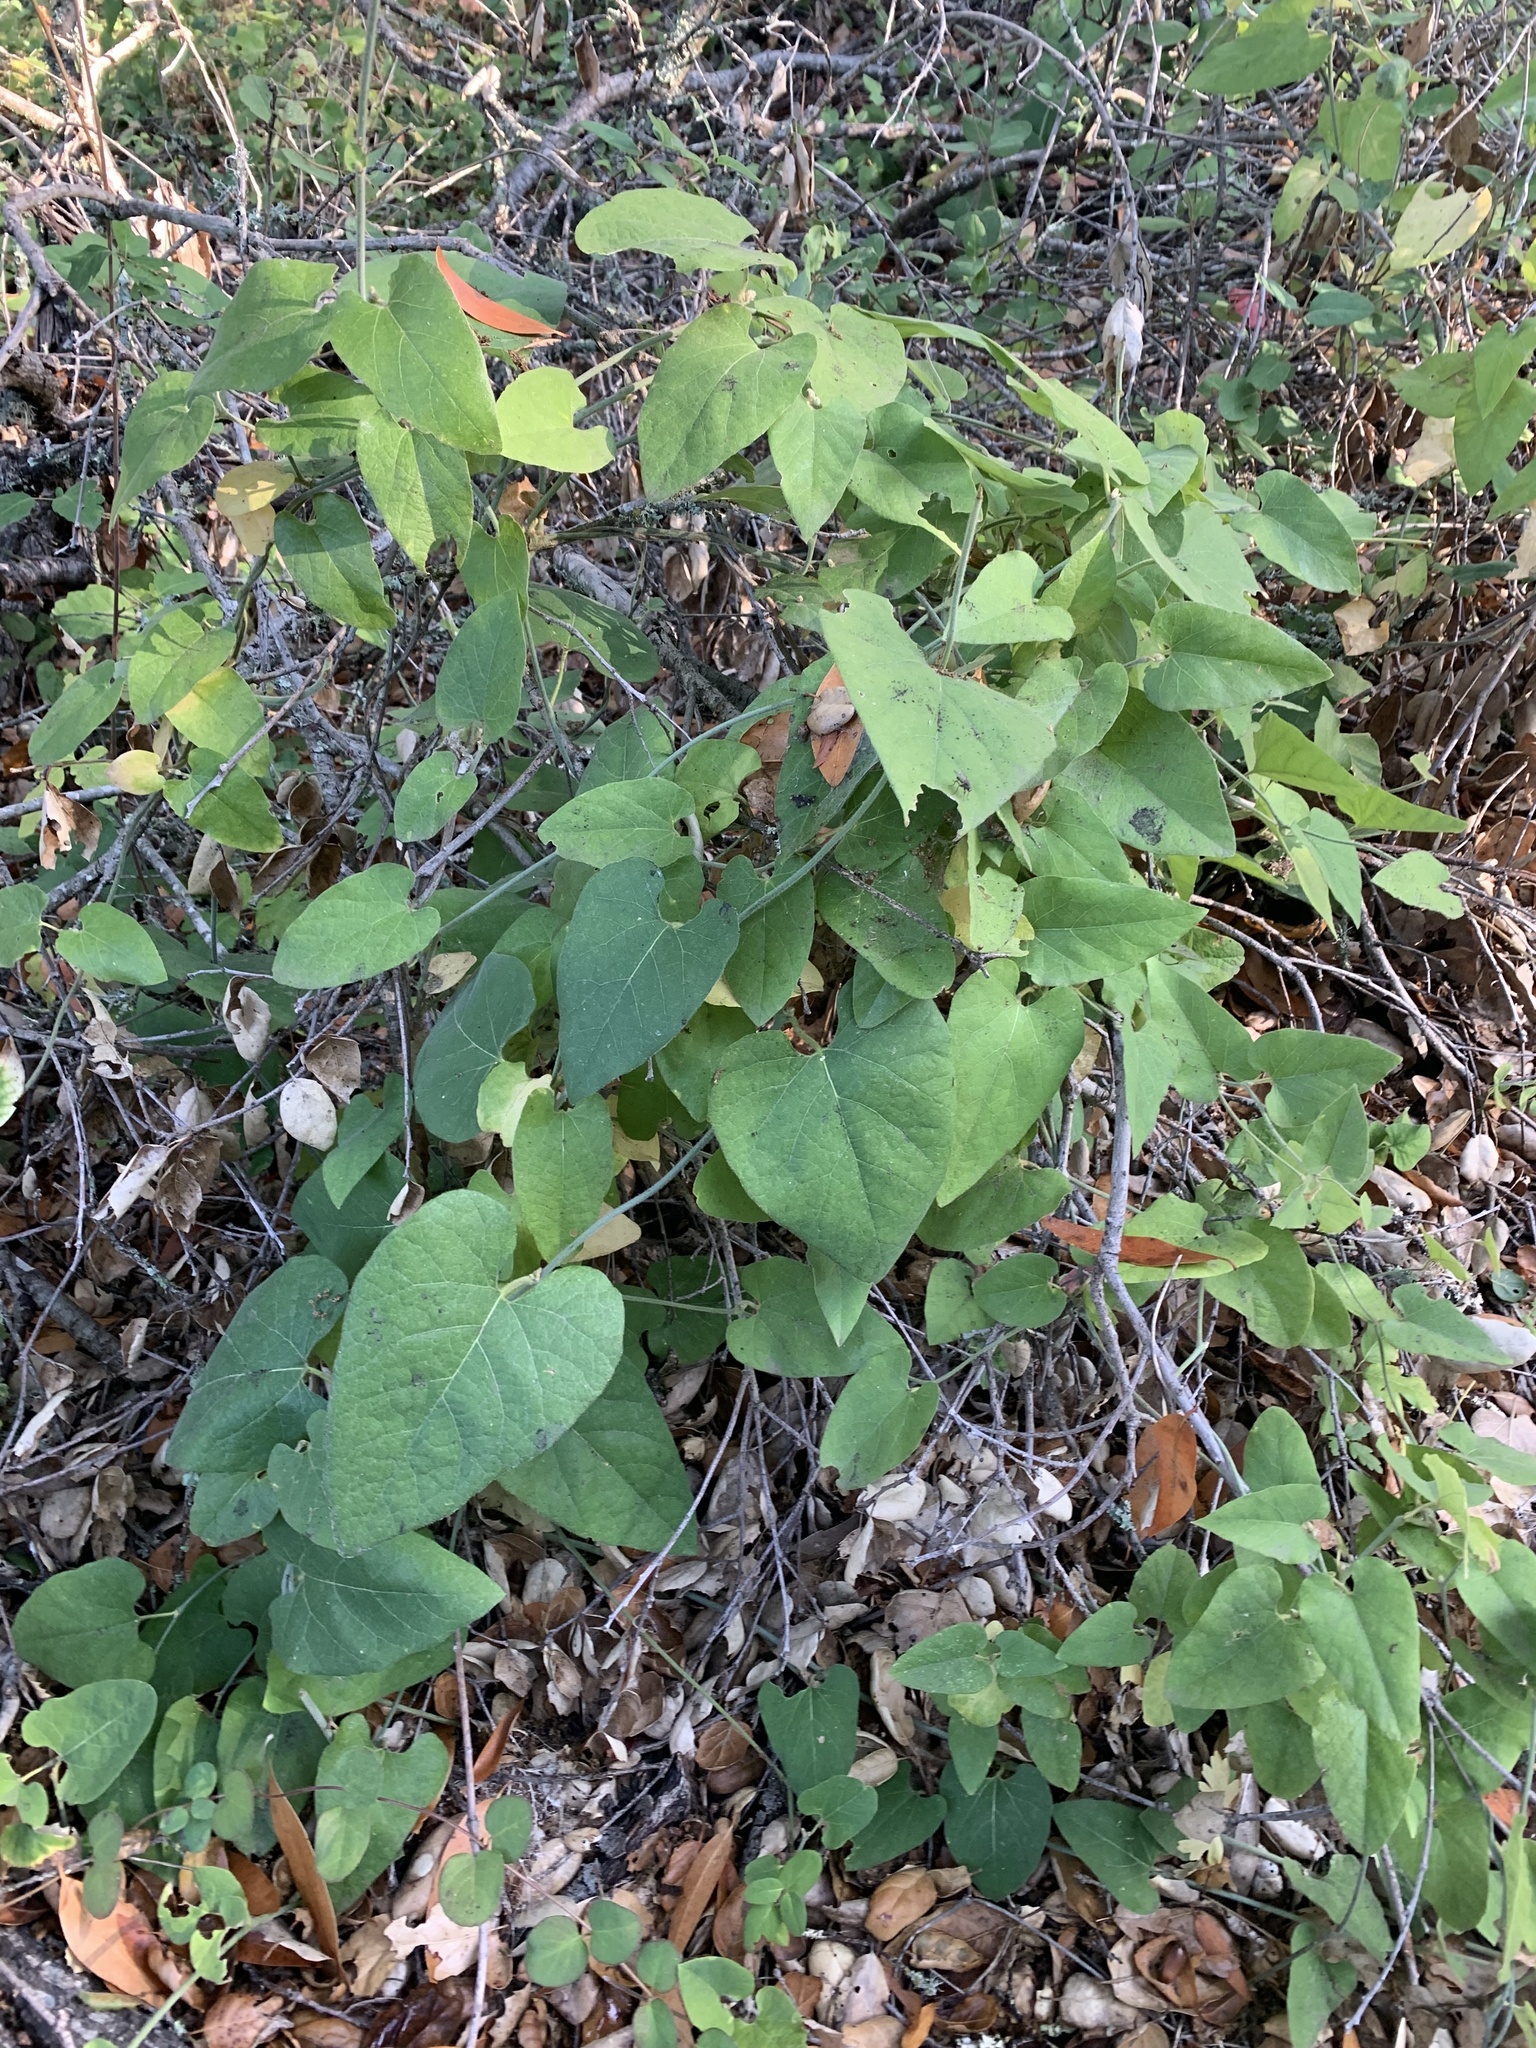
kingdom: Plantae
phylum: Tracheophyta
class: Magnoliopsida
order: Piperales
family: Aristolochiaceae
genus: Isotrema
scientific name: Isotrema californicum
